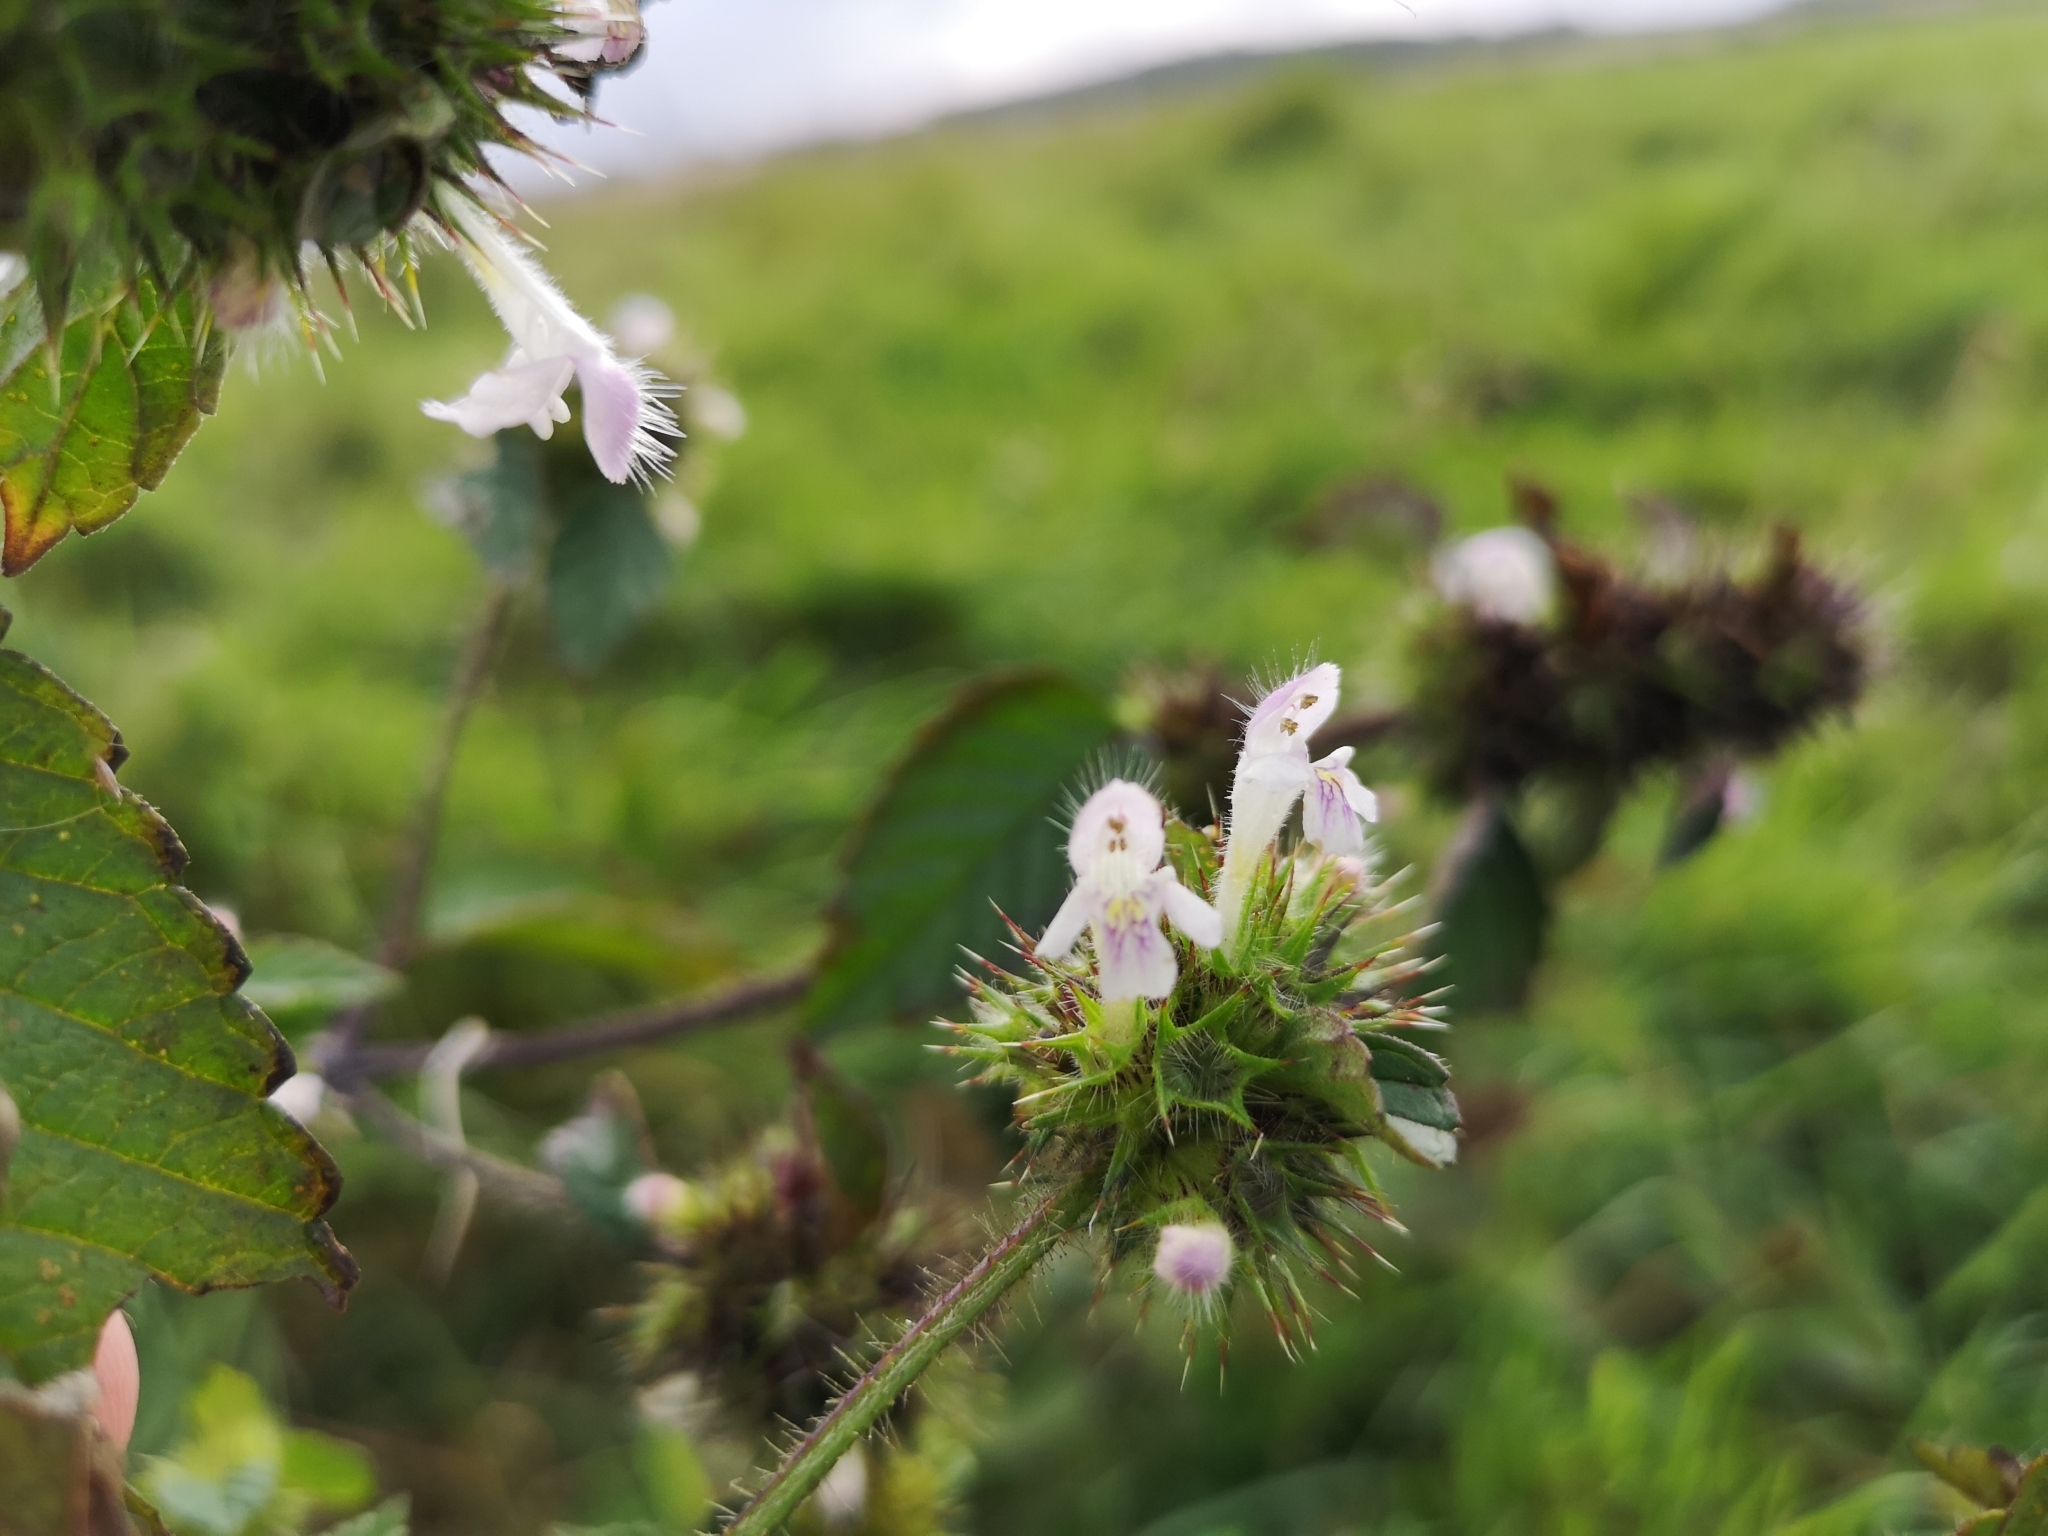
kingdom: Plantae
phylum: Tracheophyta
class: Magnoliopsida
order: Lamiales
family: Lamiaceae
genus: Galeopsis
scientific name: Galeopsis tetrahit
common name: Common hemp-nettle
